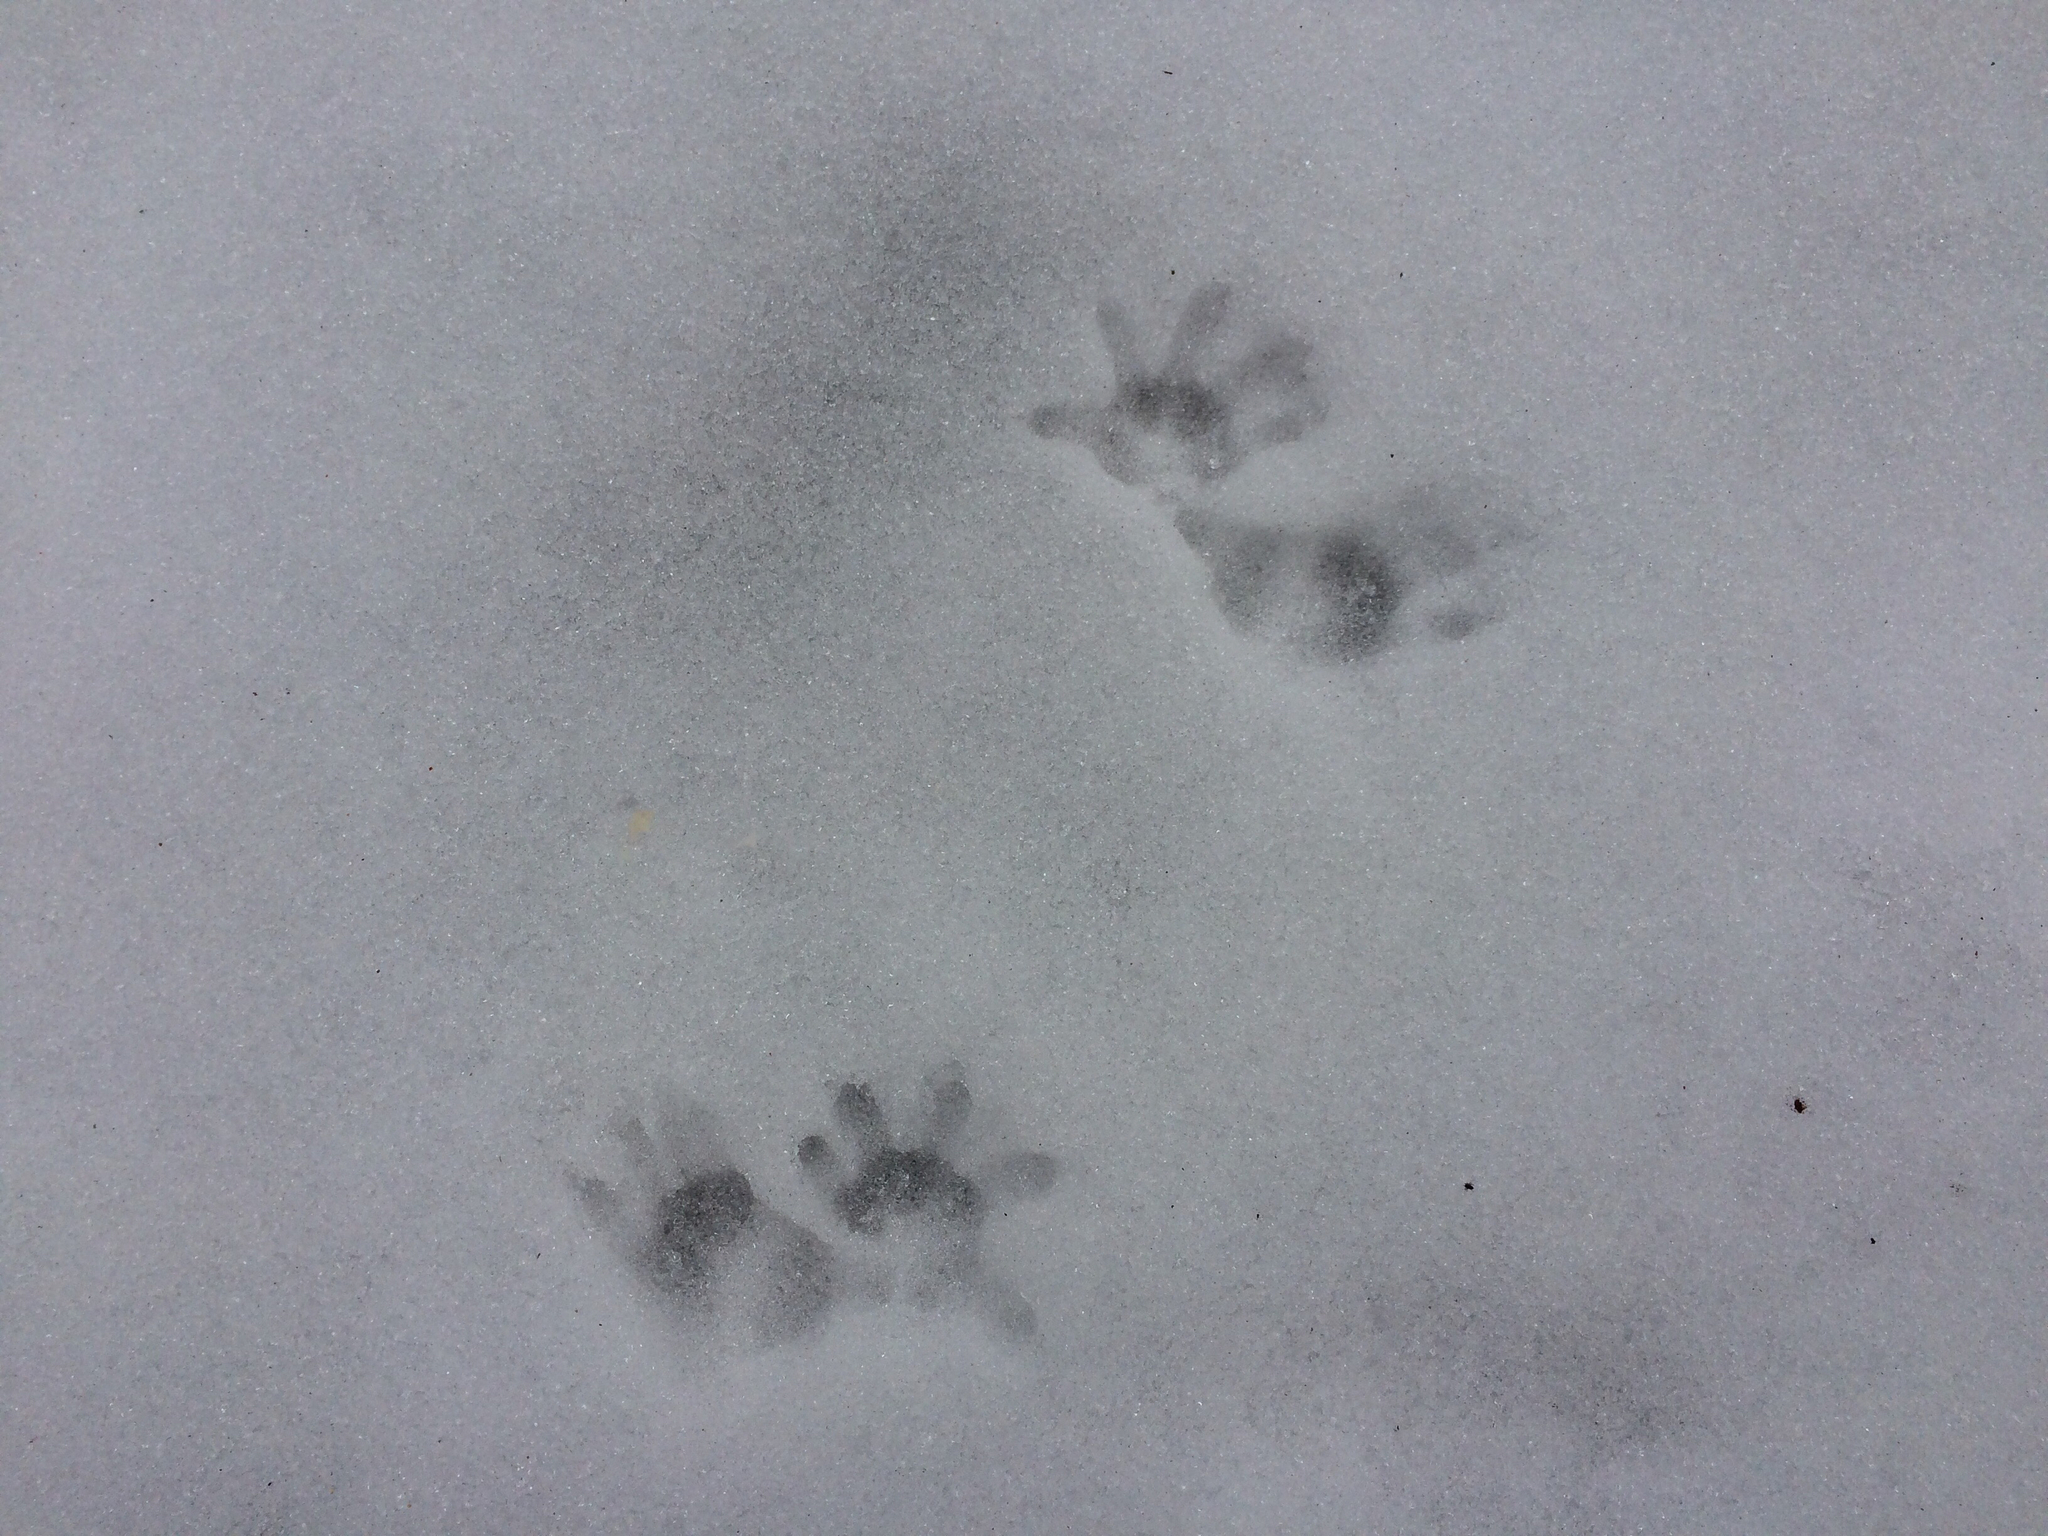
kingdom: Animalia
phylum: Chordata
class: Mammalia
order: Didelphimorphia
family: Didelphidae
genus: Didelphis
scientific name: Didelphis virginiana
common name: Virginia opossum
